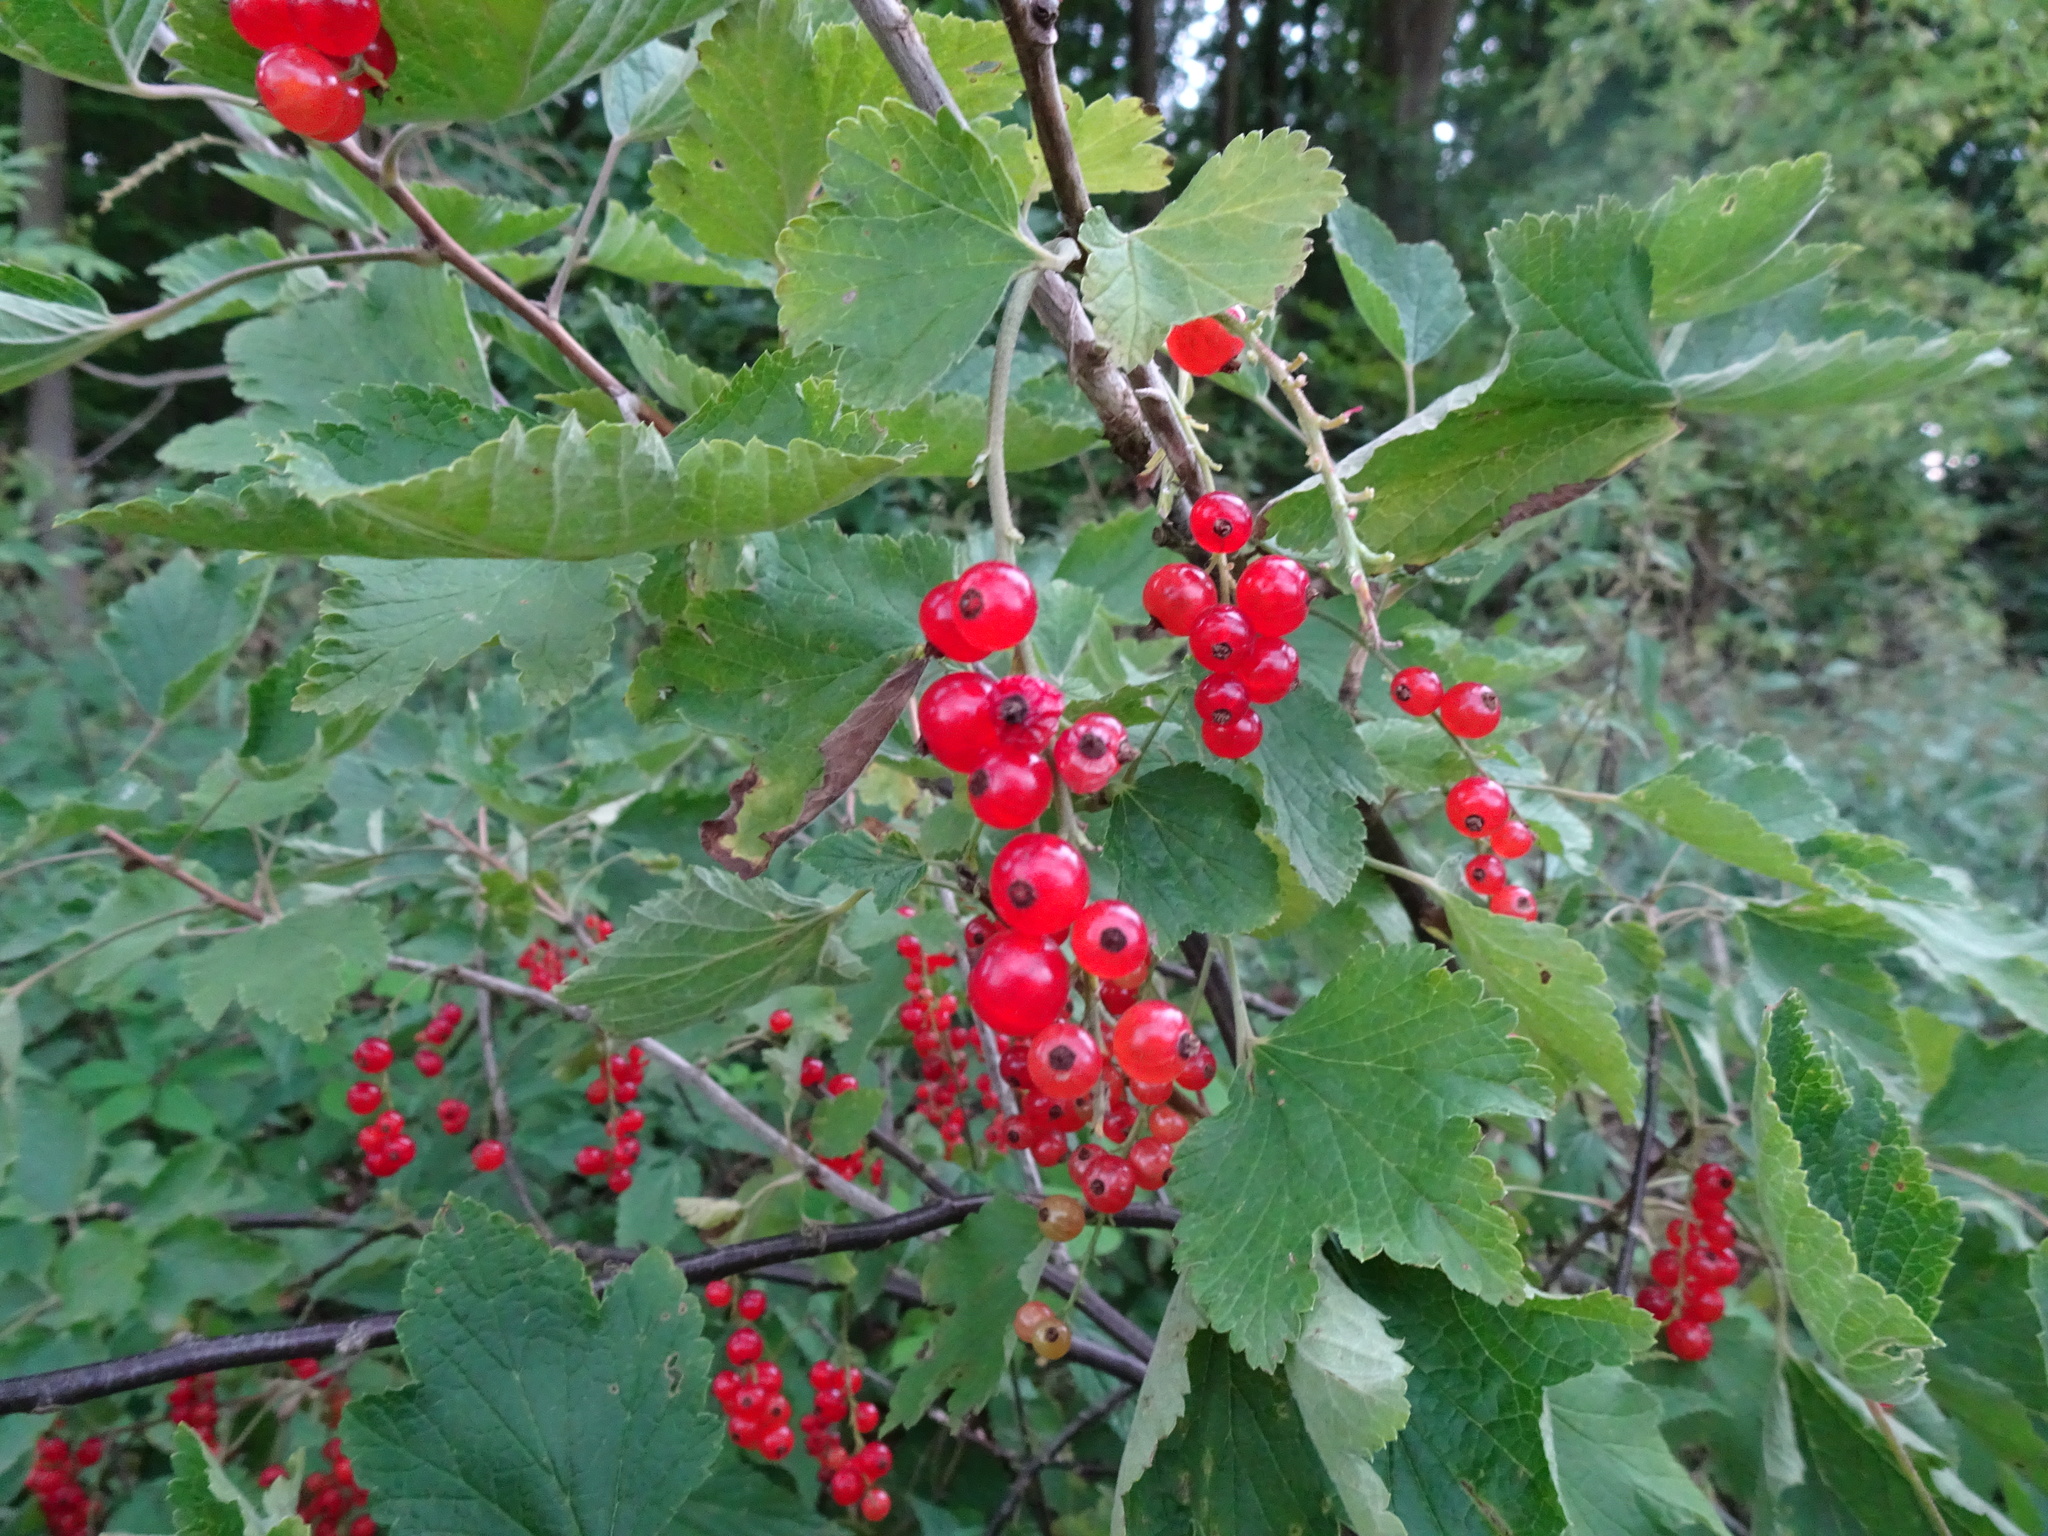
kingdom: Plantae
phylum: Tracheophyta
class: Magnoliopsida
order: Saxifragales
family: Grossulariaceae
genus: Ribes
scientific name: Ribes rubrum
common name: Red currant
